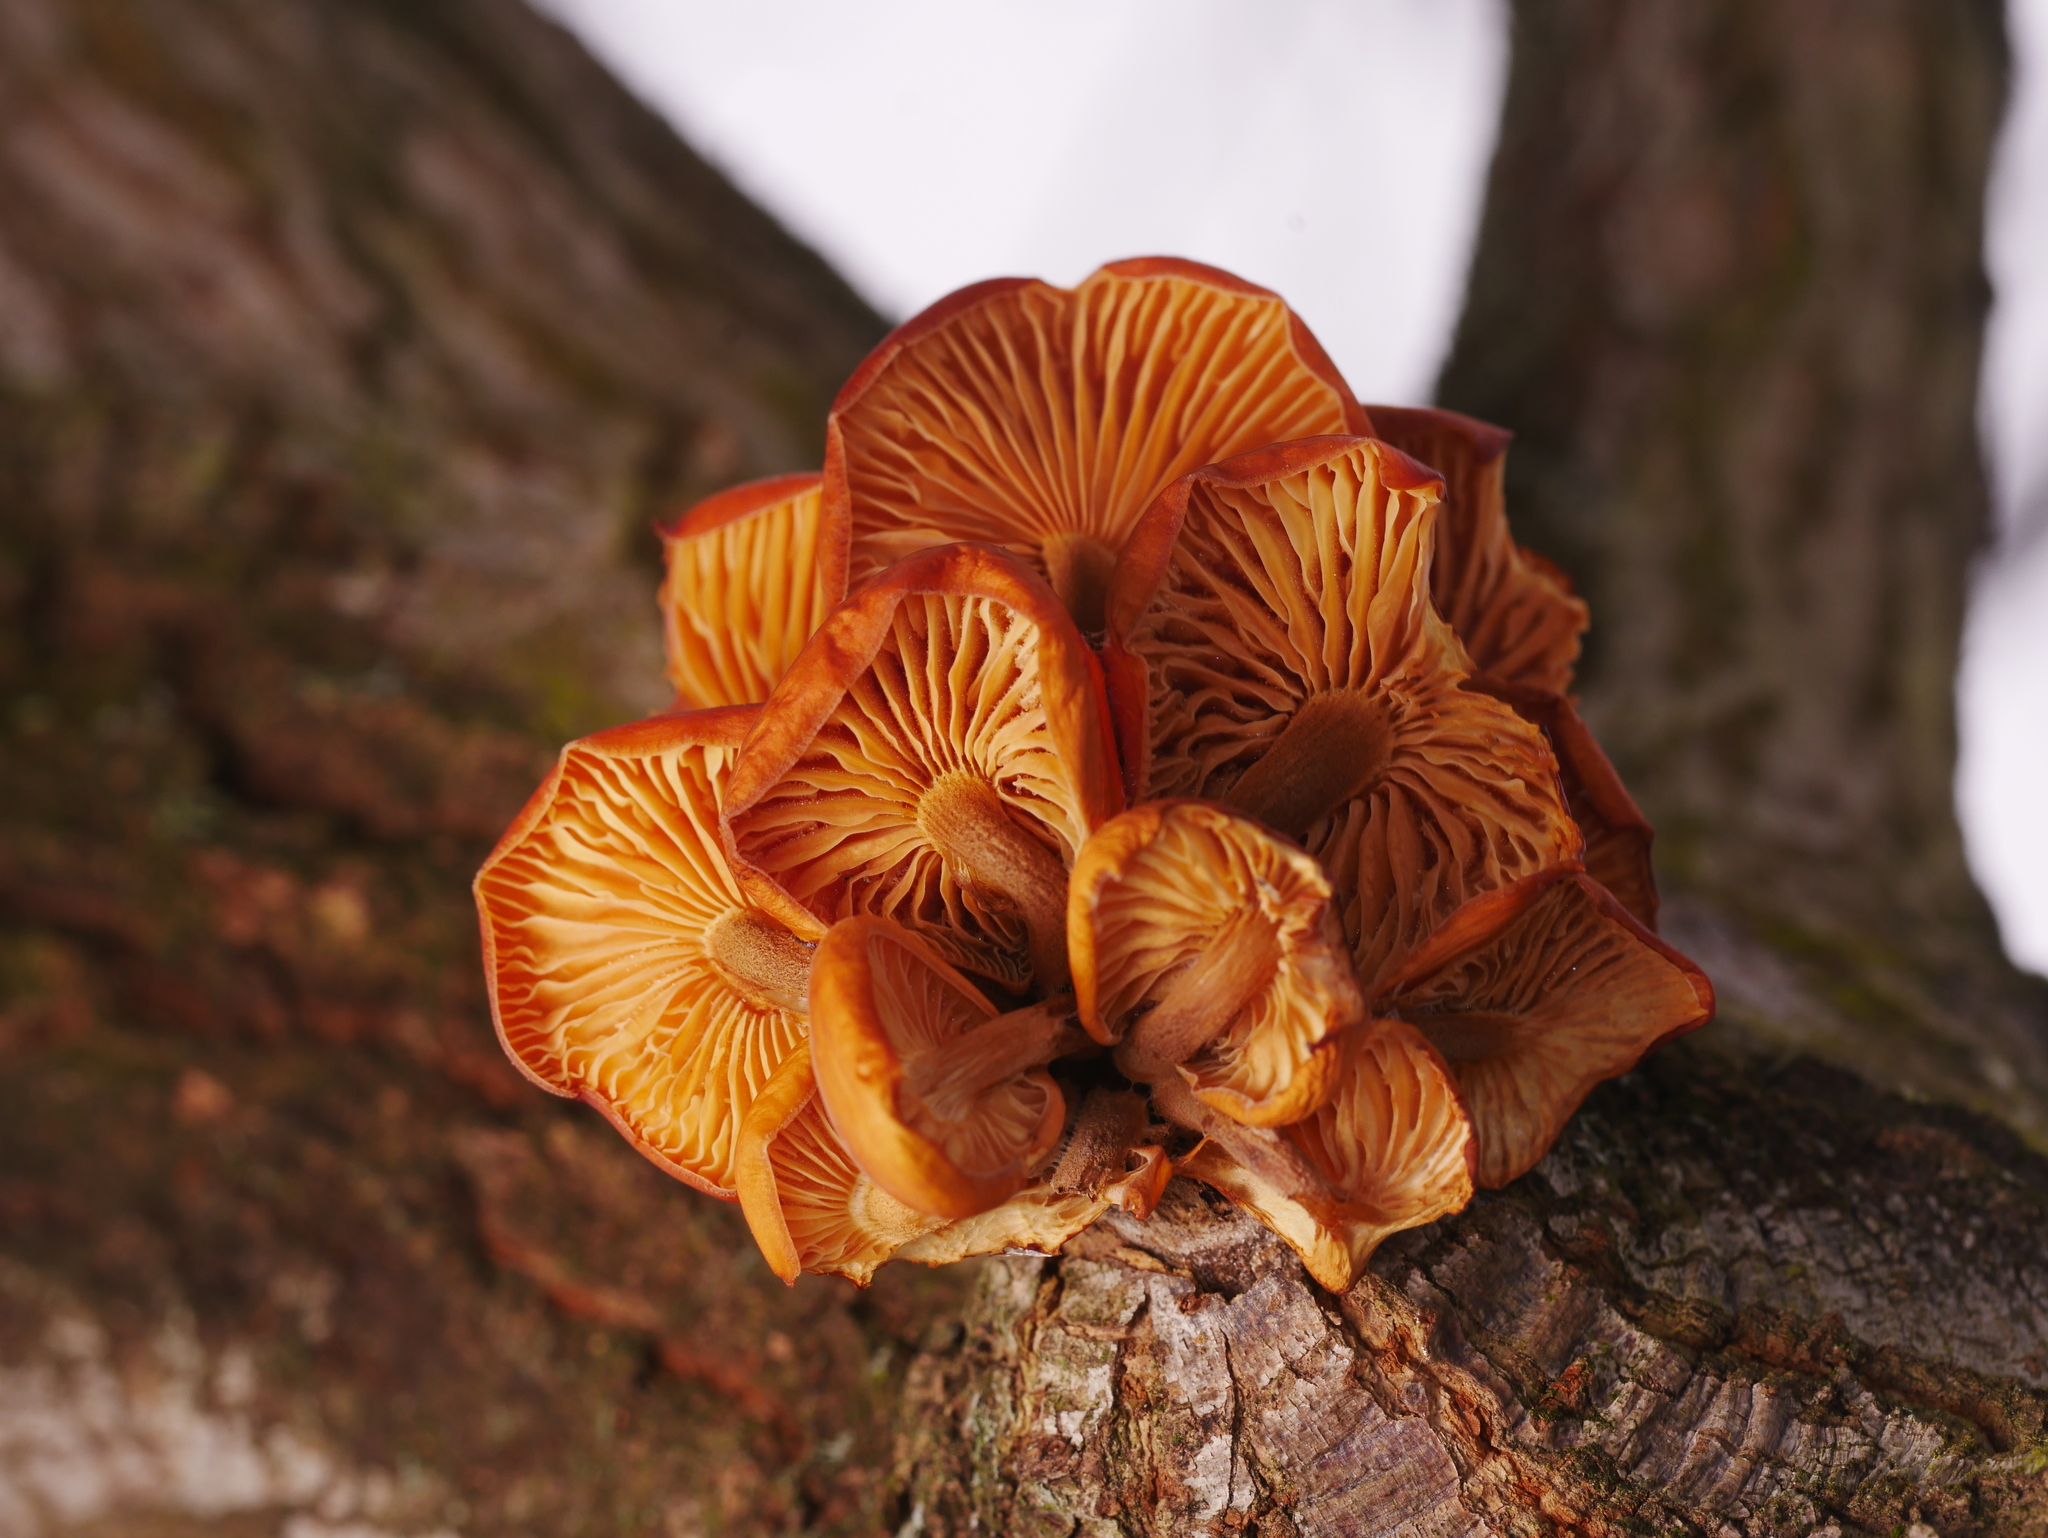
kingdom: Fungi
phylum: Basidiomycota
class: Agaricomycetes
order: Agaricales
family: Physalacriaceae
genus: Flammulina
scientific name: Flammulina
